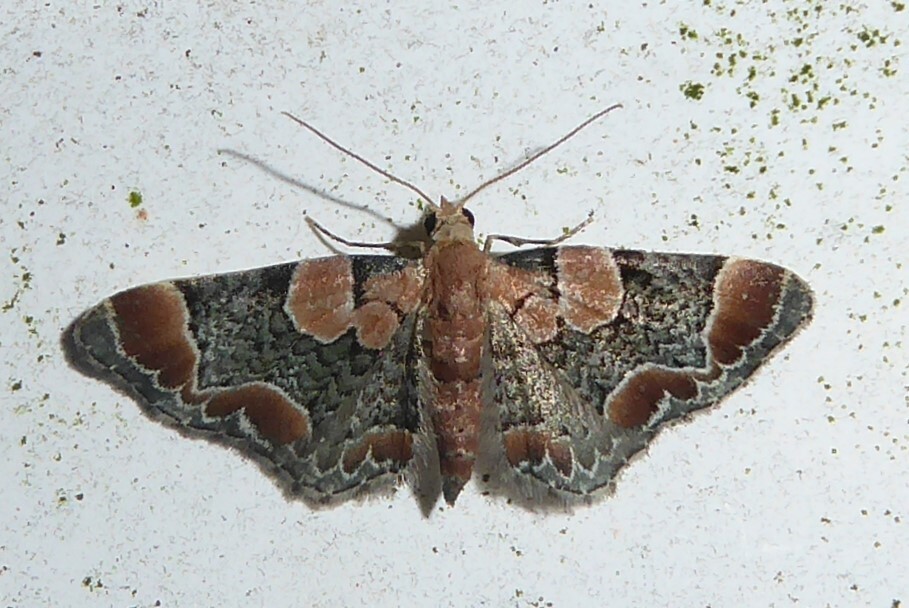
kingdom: Animalia
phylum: Arthropoda
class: Insecta
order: Lepidoptera
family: Geometridae
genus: Chloroclystis
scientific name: Chloroclystis
